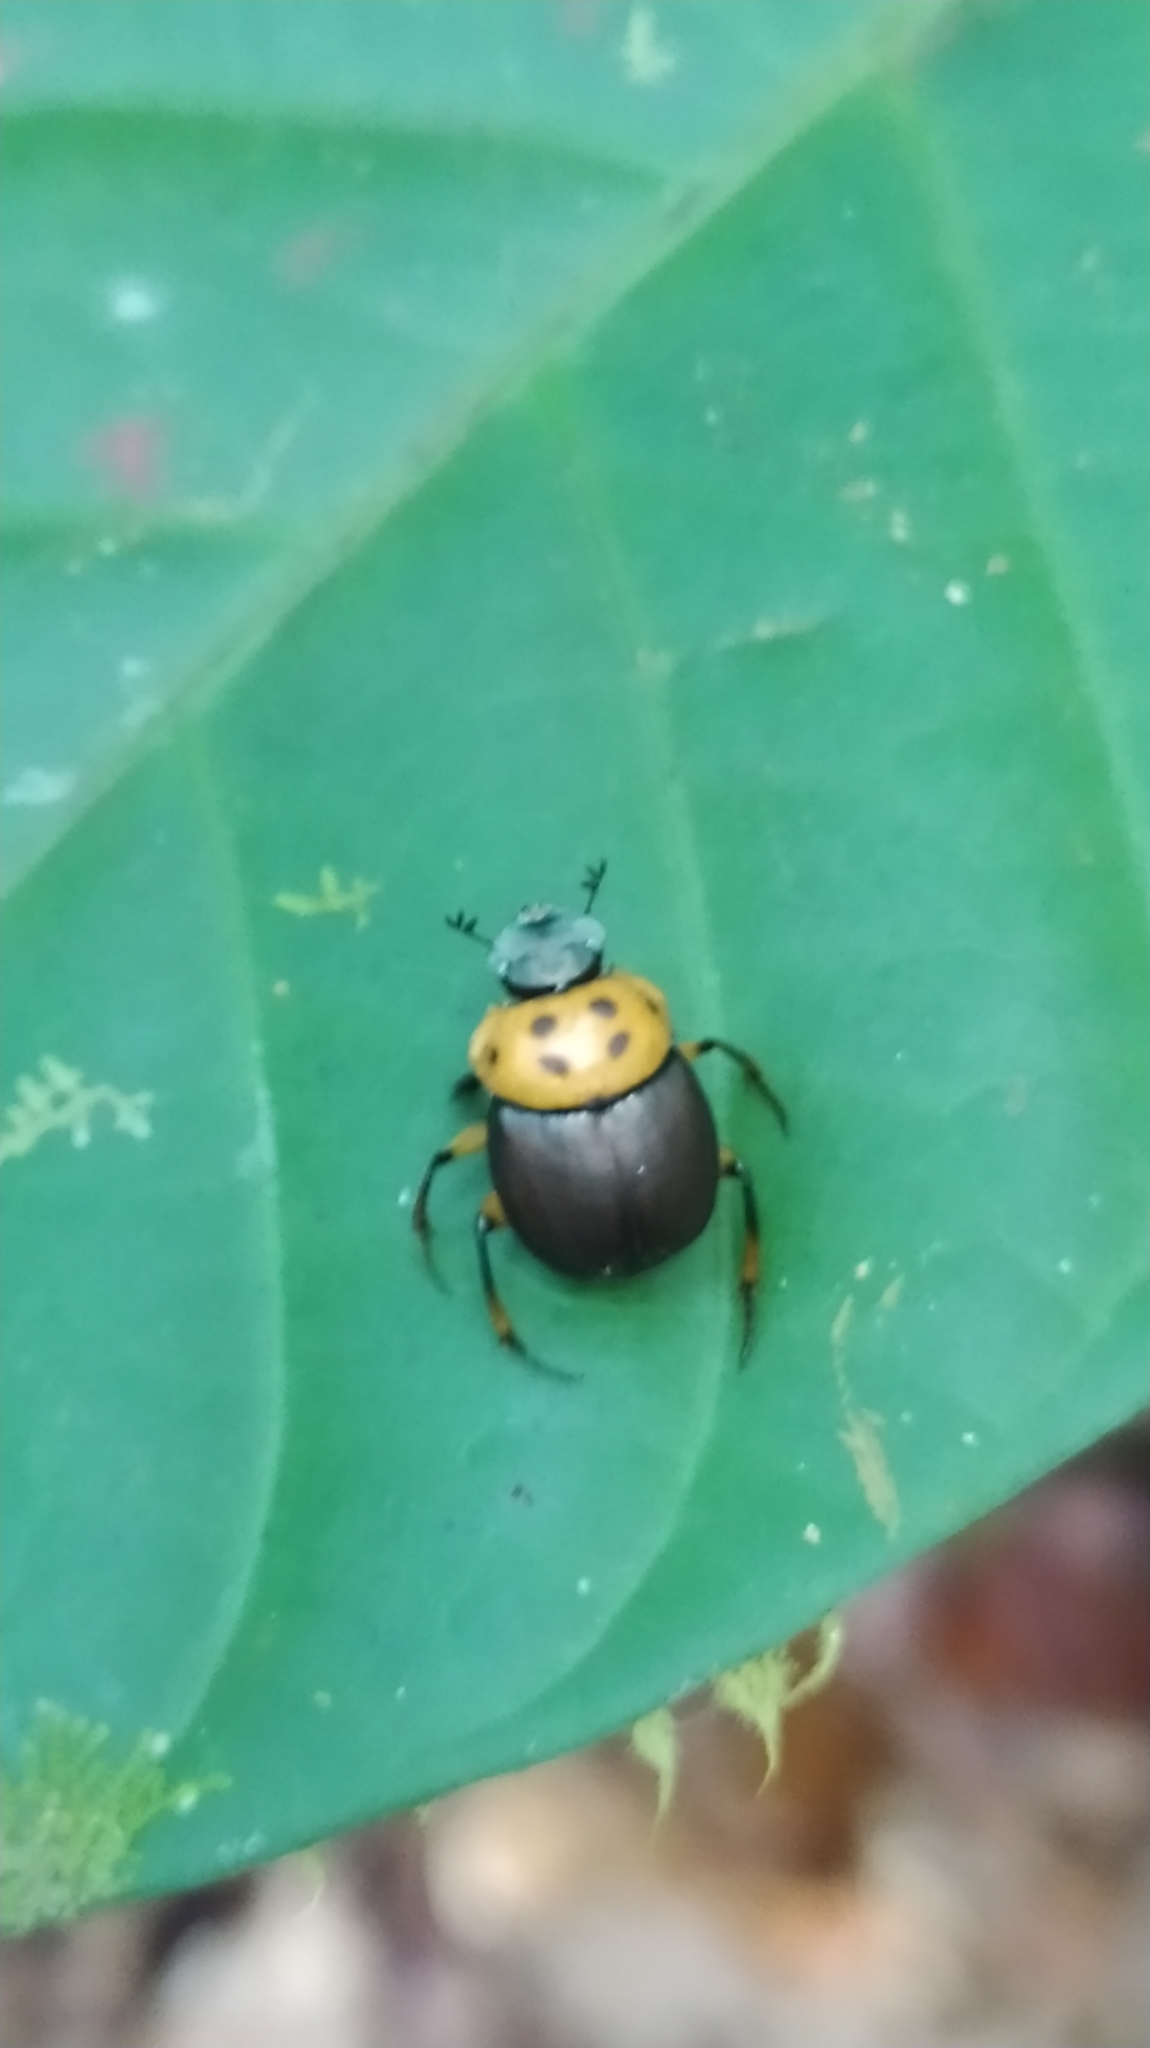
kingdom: Animalia
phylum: Arthropoda
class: Insecta
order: Coleoptera
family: Scarabaeidae
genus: Canthon
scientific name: Canthon triangularis
